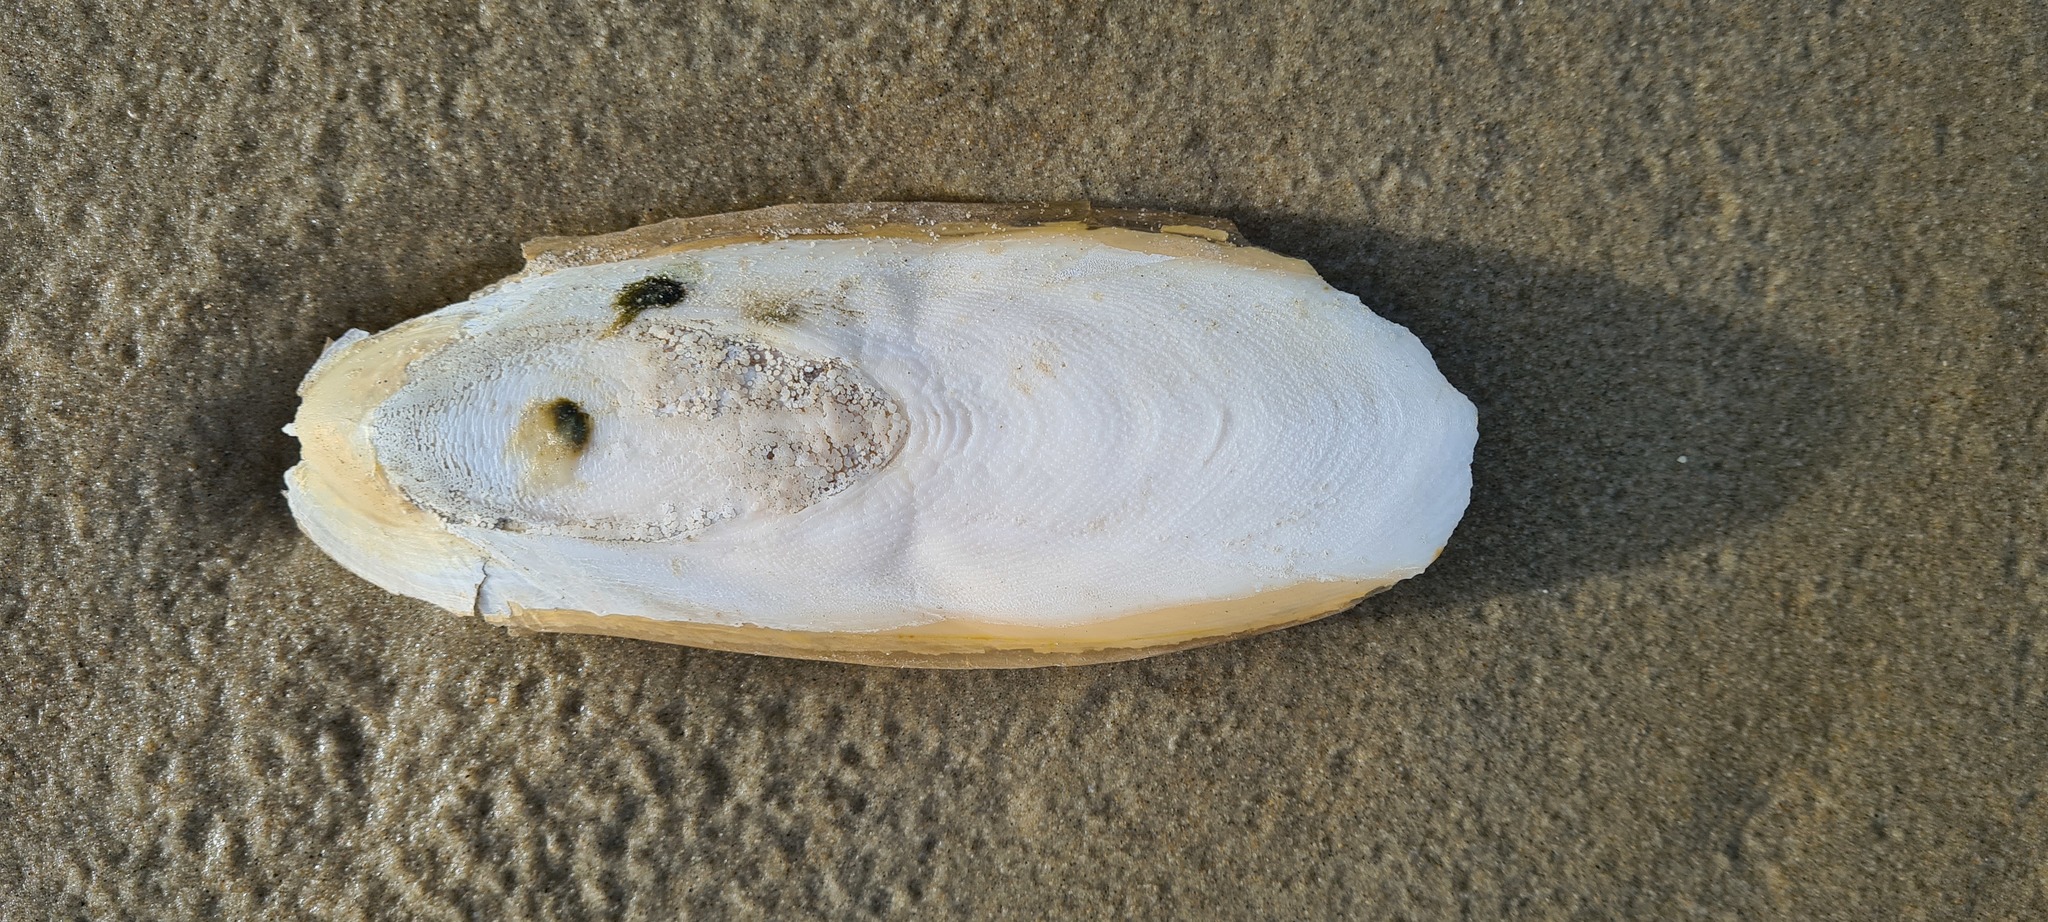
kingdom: Animalia
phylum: Mollusca
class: Cephalopoda
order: Sepiida
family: Sepiidae
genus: Sepia
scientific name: Sepia officinalis
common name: Common cuttlefish
